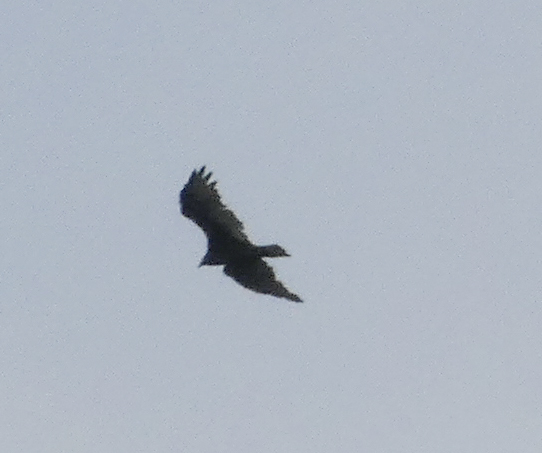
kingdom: Animalia
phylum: Chordata
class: Aves
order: Accipitriformes
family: Cathartidae
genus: Cathartes
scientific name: Cathartes aura
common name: Turkey vulture
